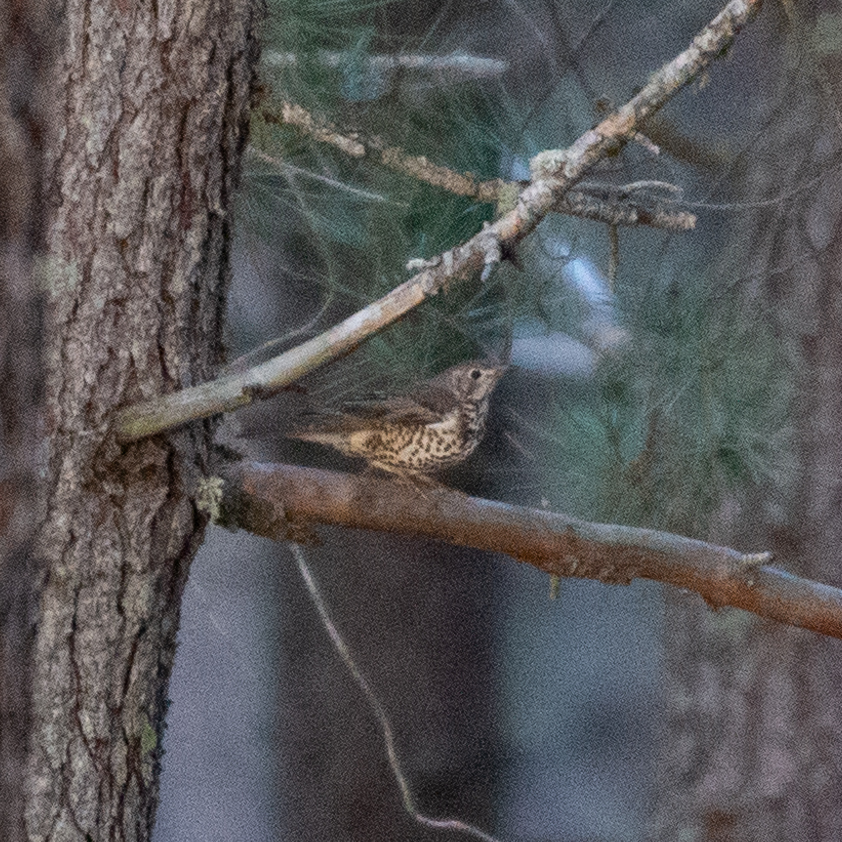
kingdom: Animalia
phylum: Chordata
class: Aves
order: Passeriformes
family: Turdidae
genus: Turdus
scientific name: Turdus viscivorus
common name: Mistle thrush
